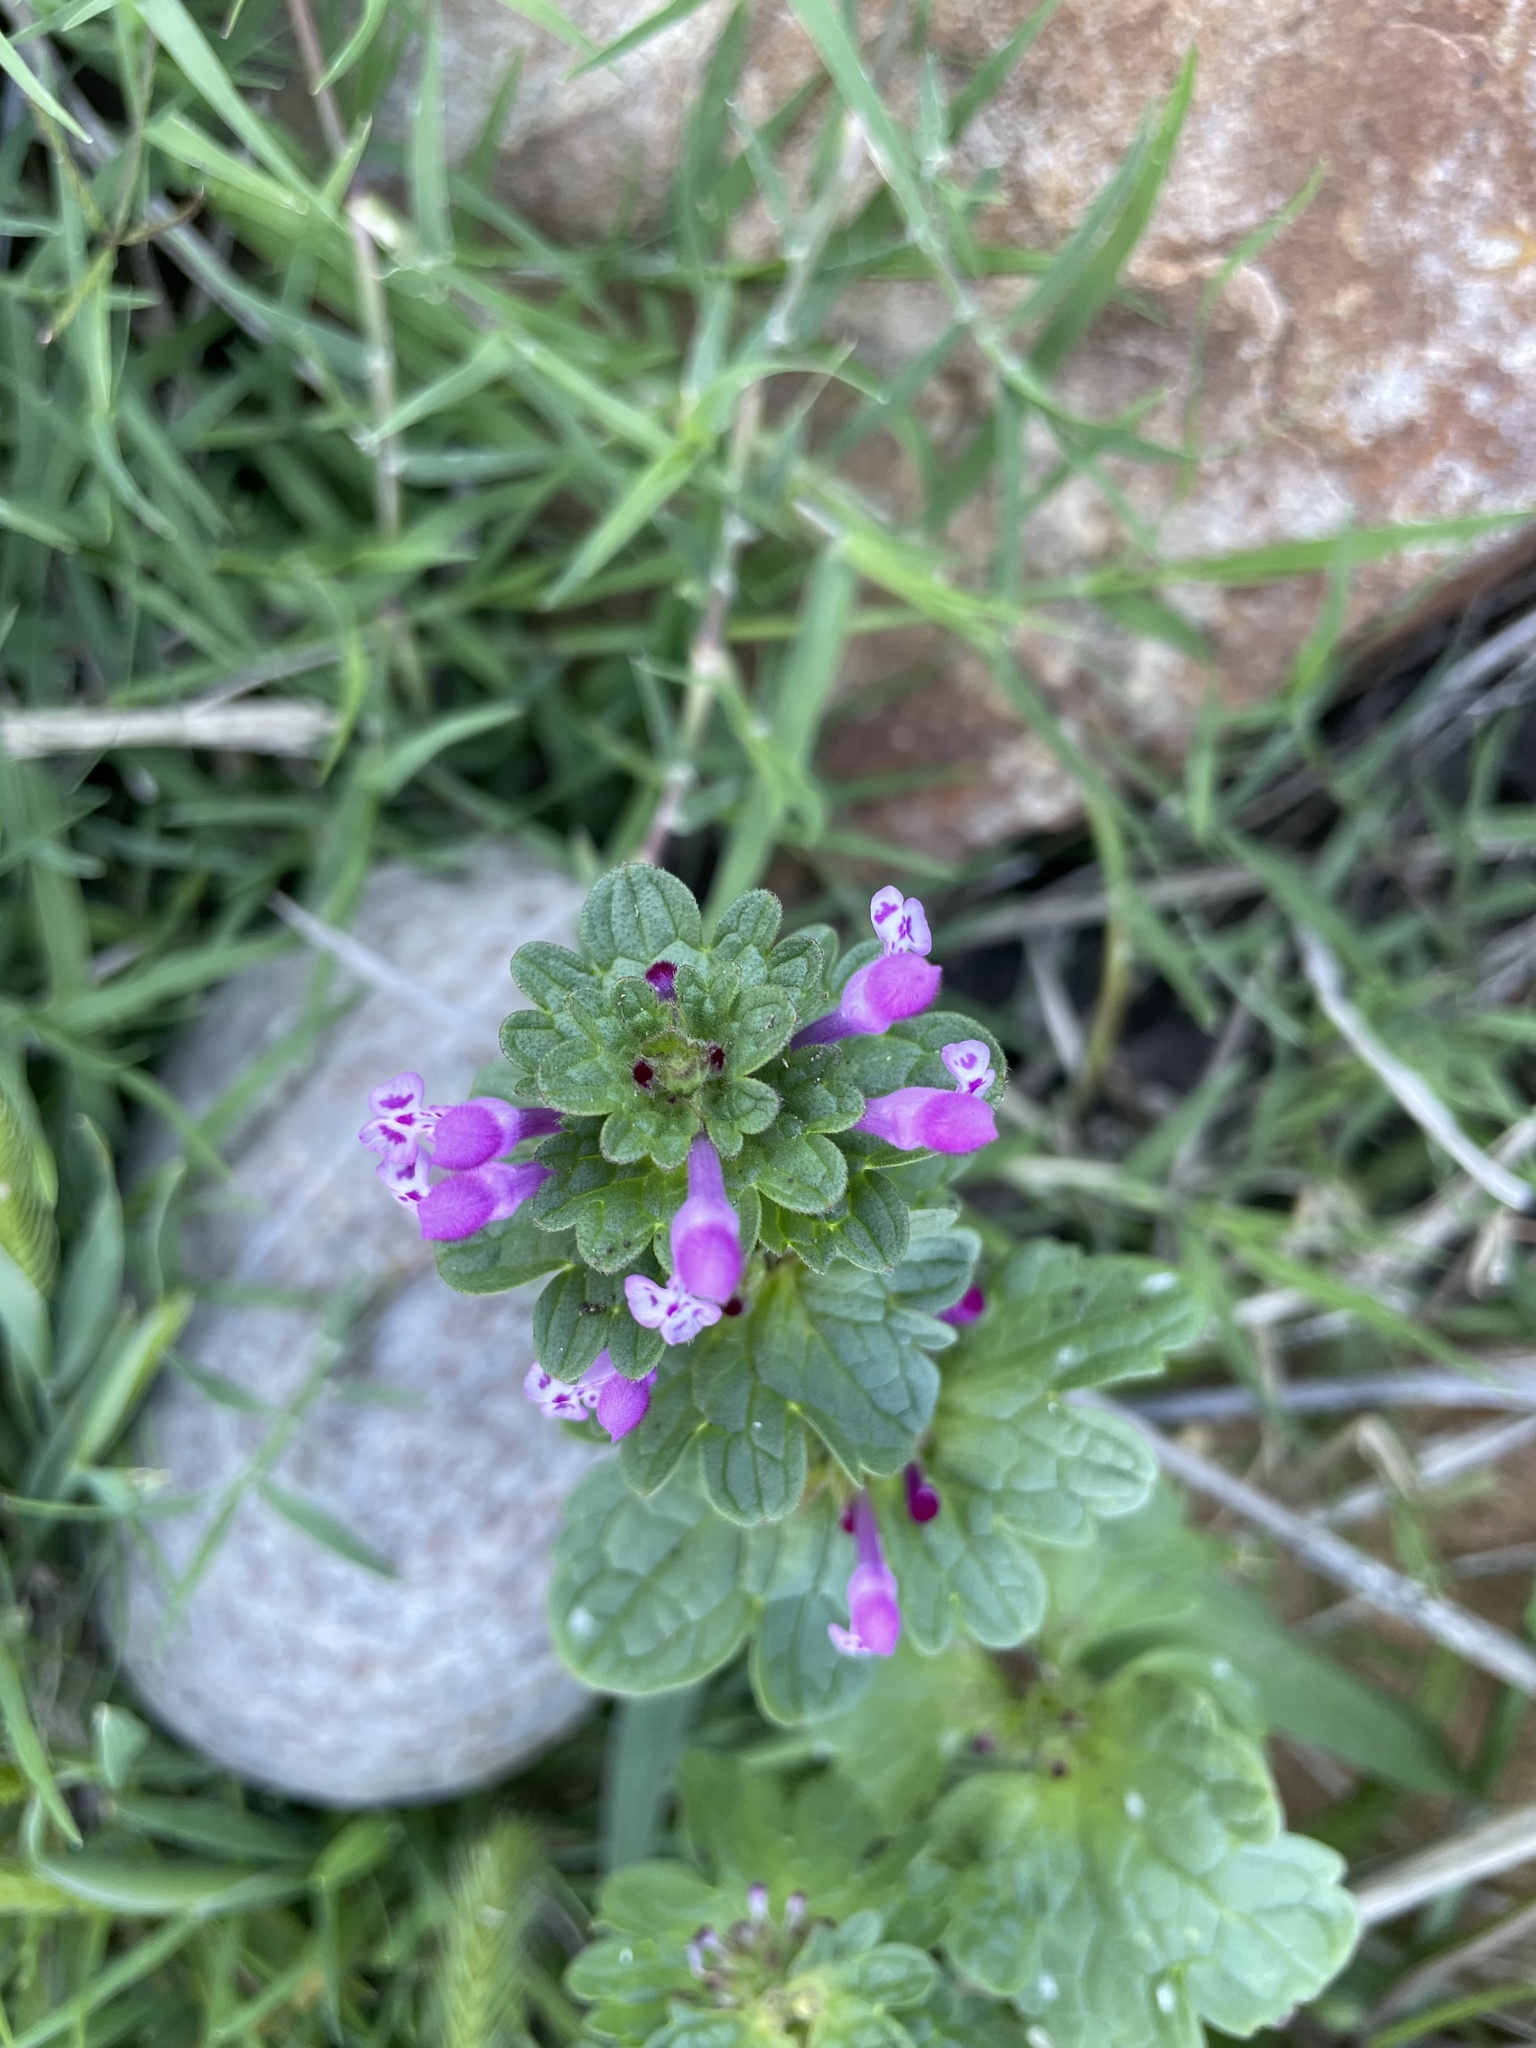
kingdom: Plantae
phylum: Tracheophyta
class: Magnoliopsida
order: Lamiales
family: Lamiaceae
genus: Lamium
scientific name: Lamium amplexicaule
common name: Henbit dead-nettle
